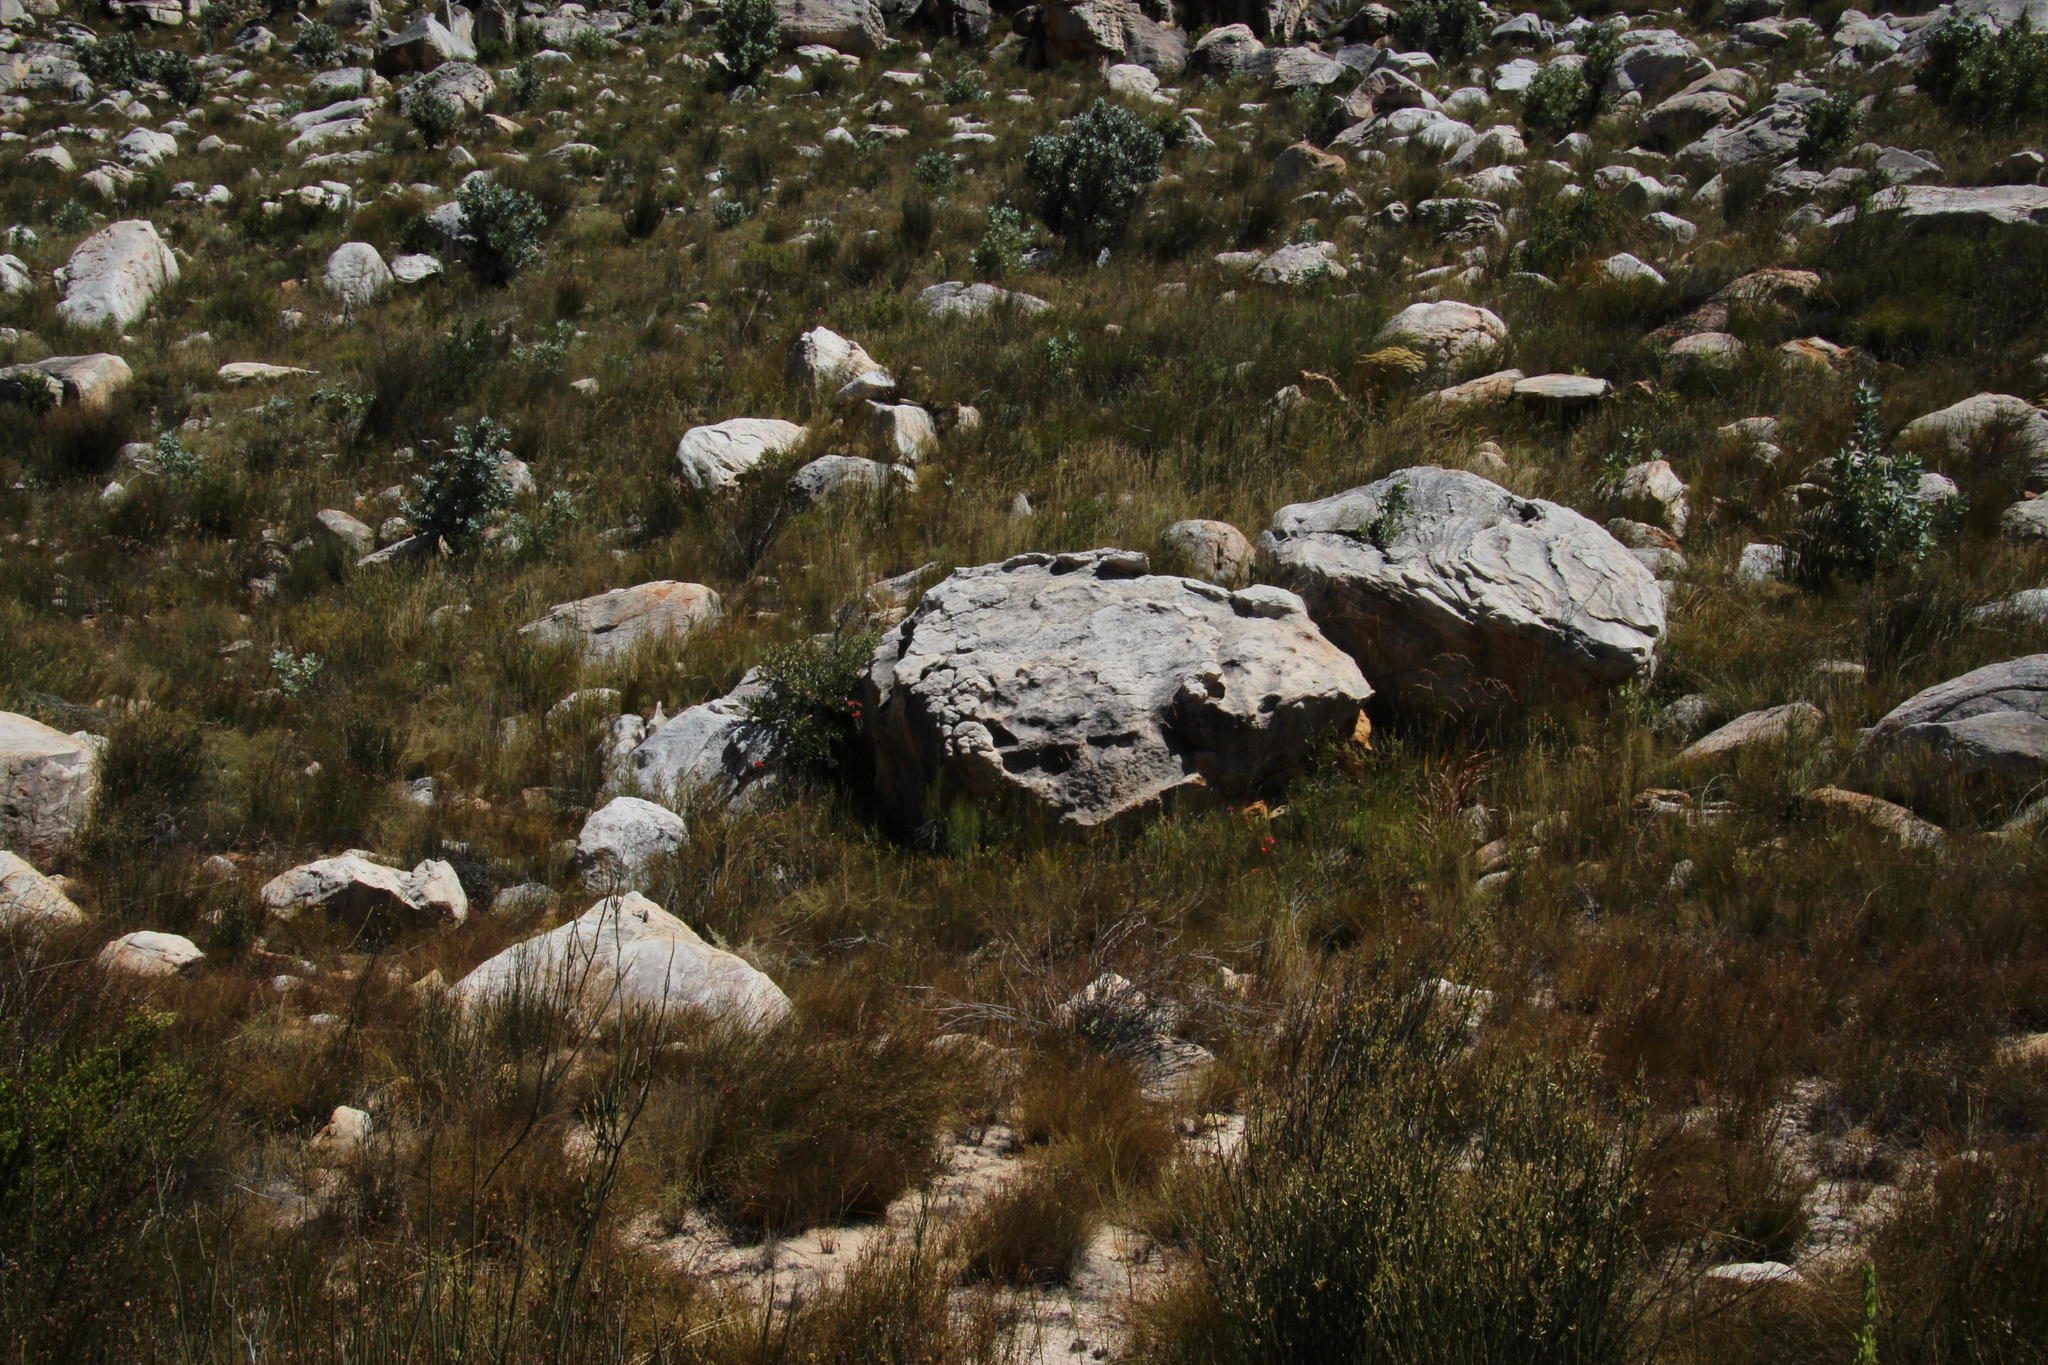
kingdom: Plantae
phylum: Tracheophyta
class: Magnoliopsida
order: Ericales
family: Ericaceae
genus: Erica
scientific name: Erica cerinthoides
